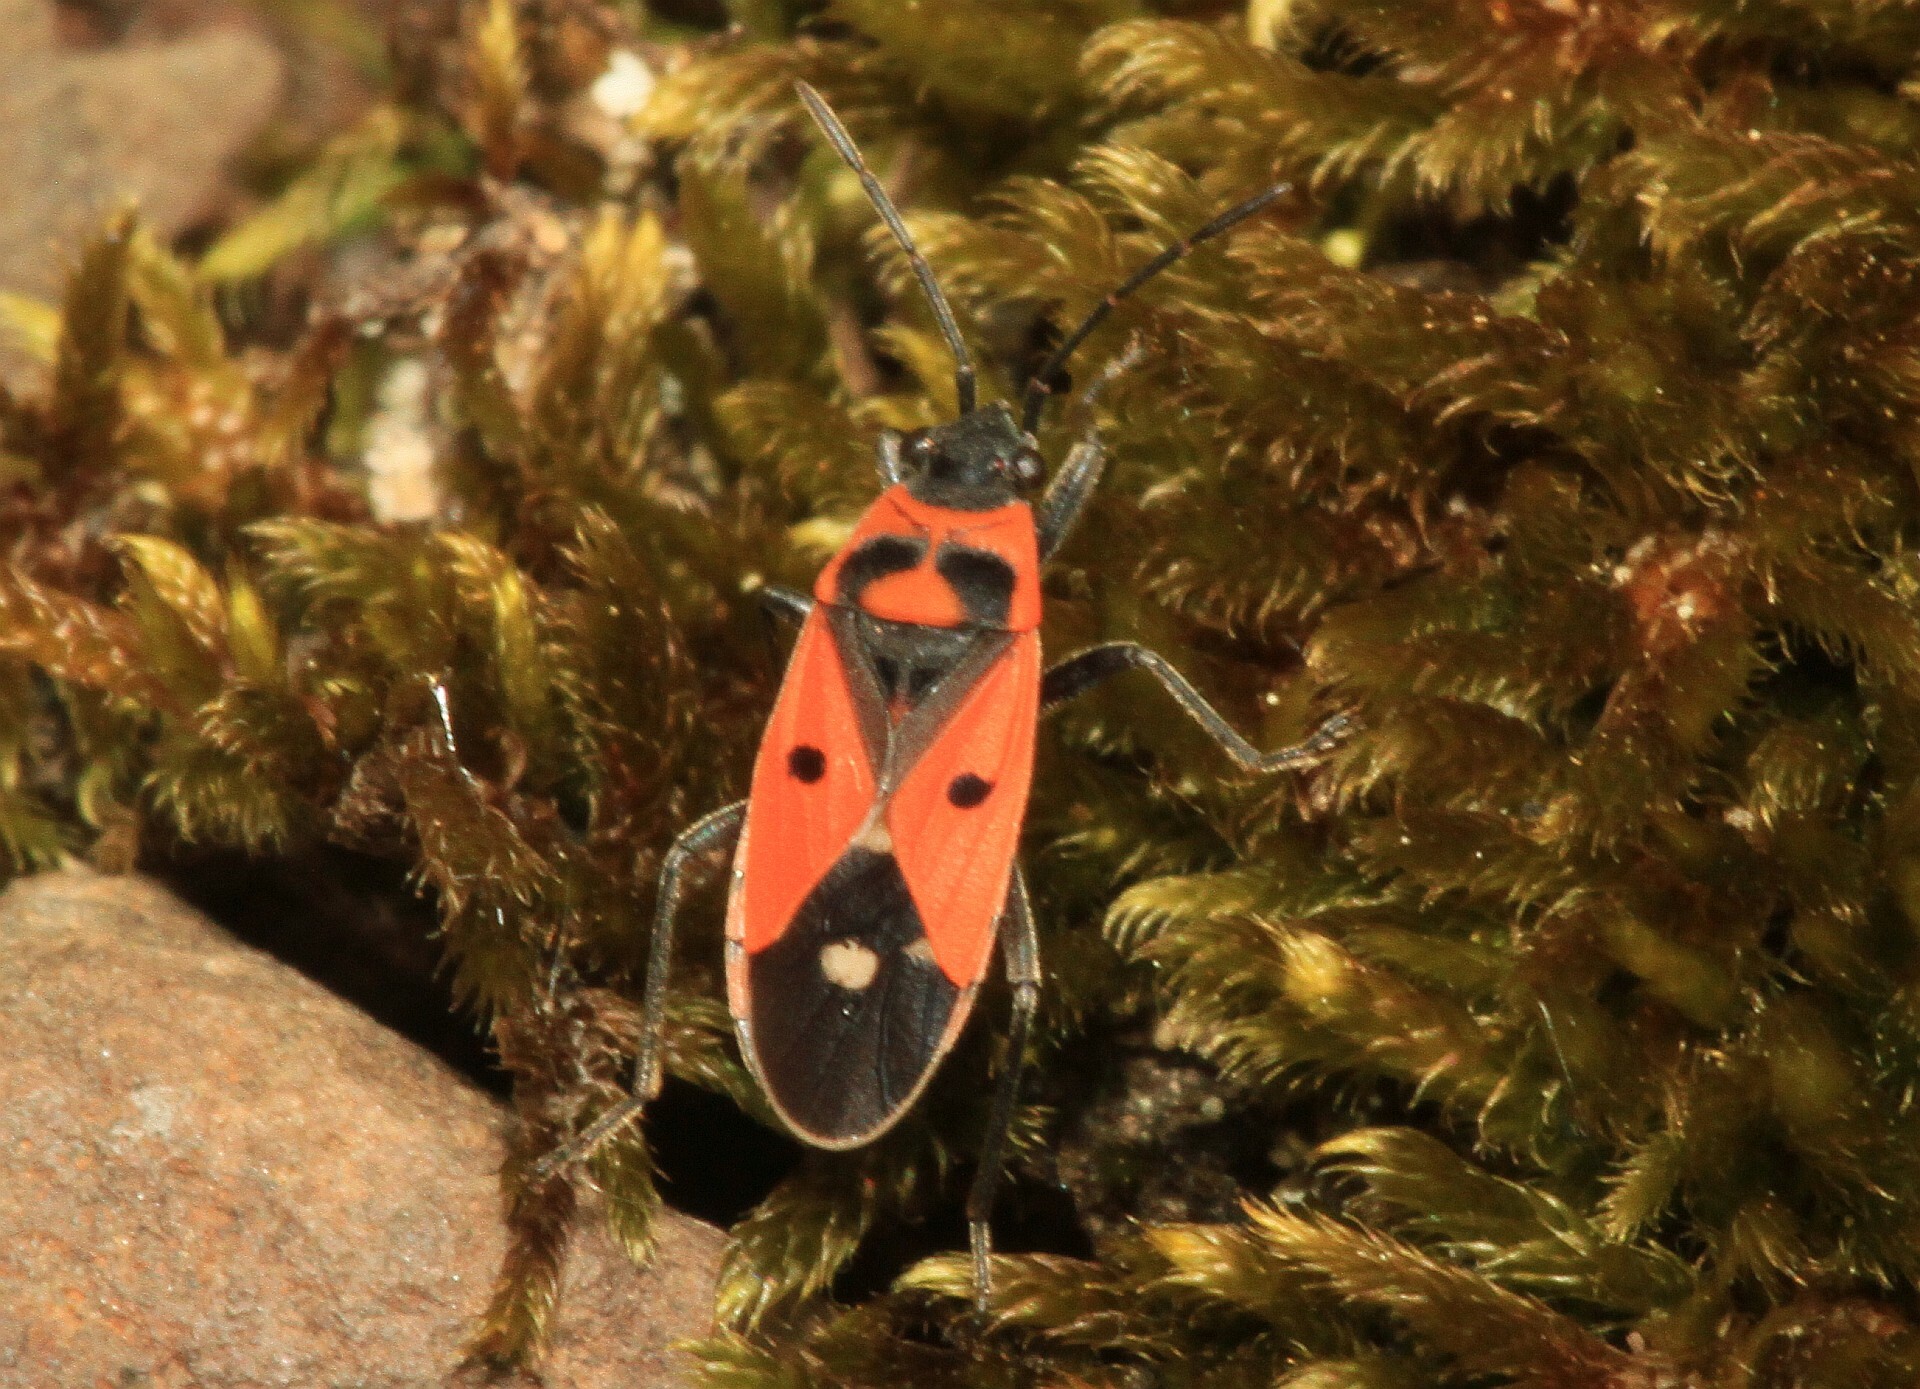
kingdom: Animalia
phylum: Arthropoda
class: Insecta
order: Hemiptera
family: Lygaeidae
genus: Melanocoryphus
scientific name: Melanocoryphus albomaculatus
